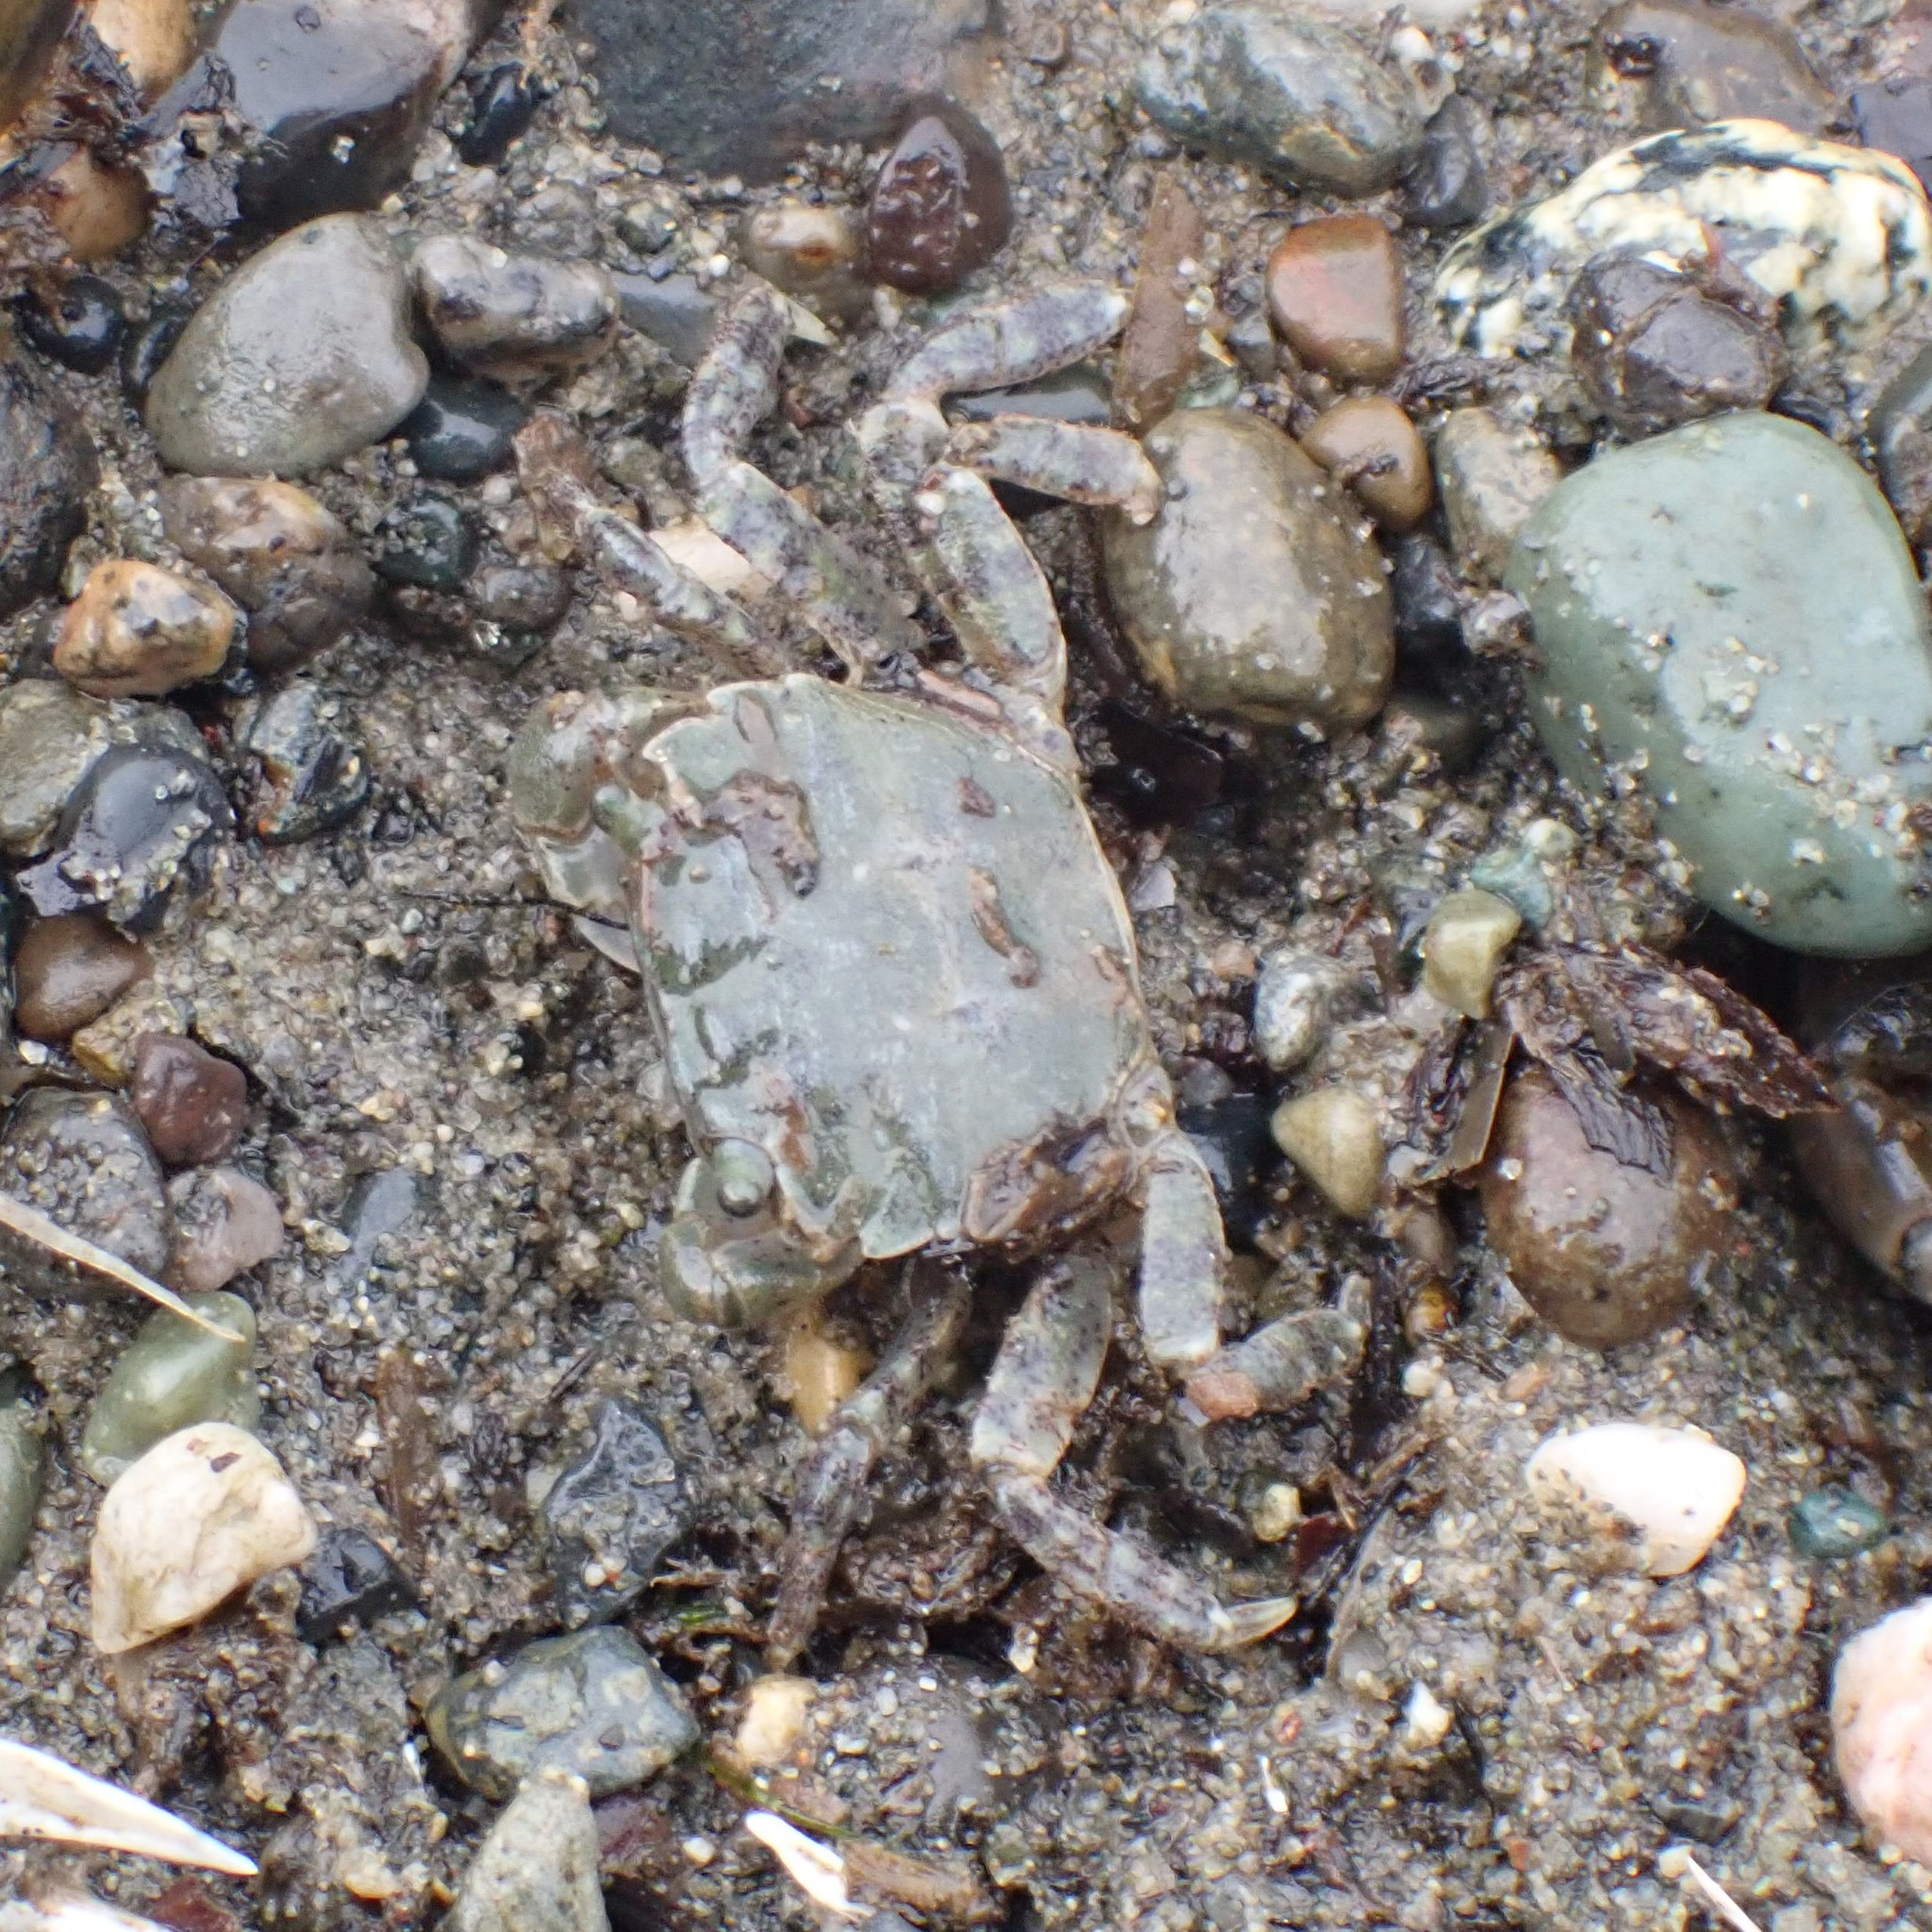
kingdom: Animalia
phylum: Arthropoda
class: Malacostraca
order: Decapoda
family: Varunidae
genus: Hemigrapsus
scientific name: Hemigrapsus oregonensis
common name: Yellow shore crab
